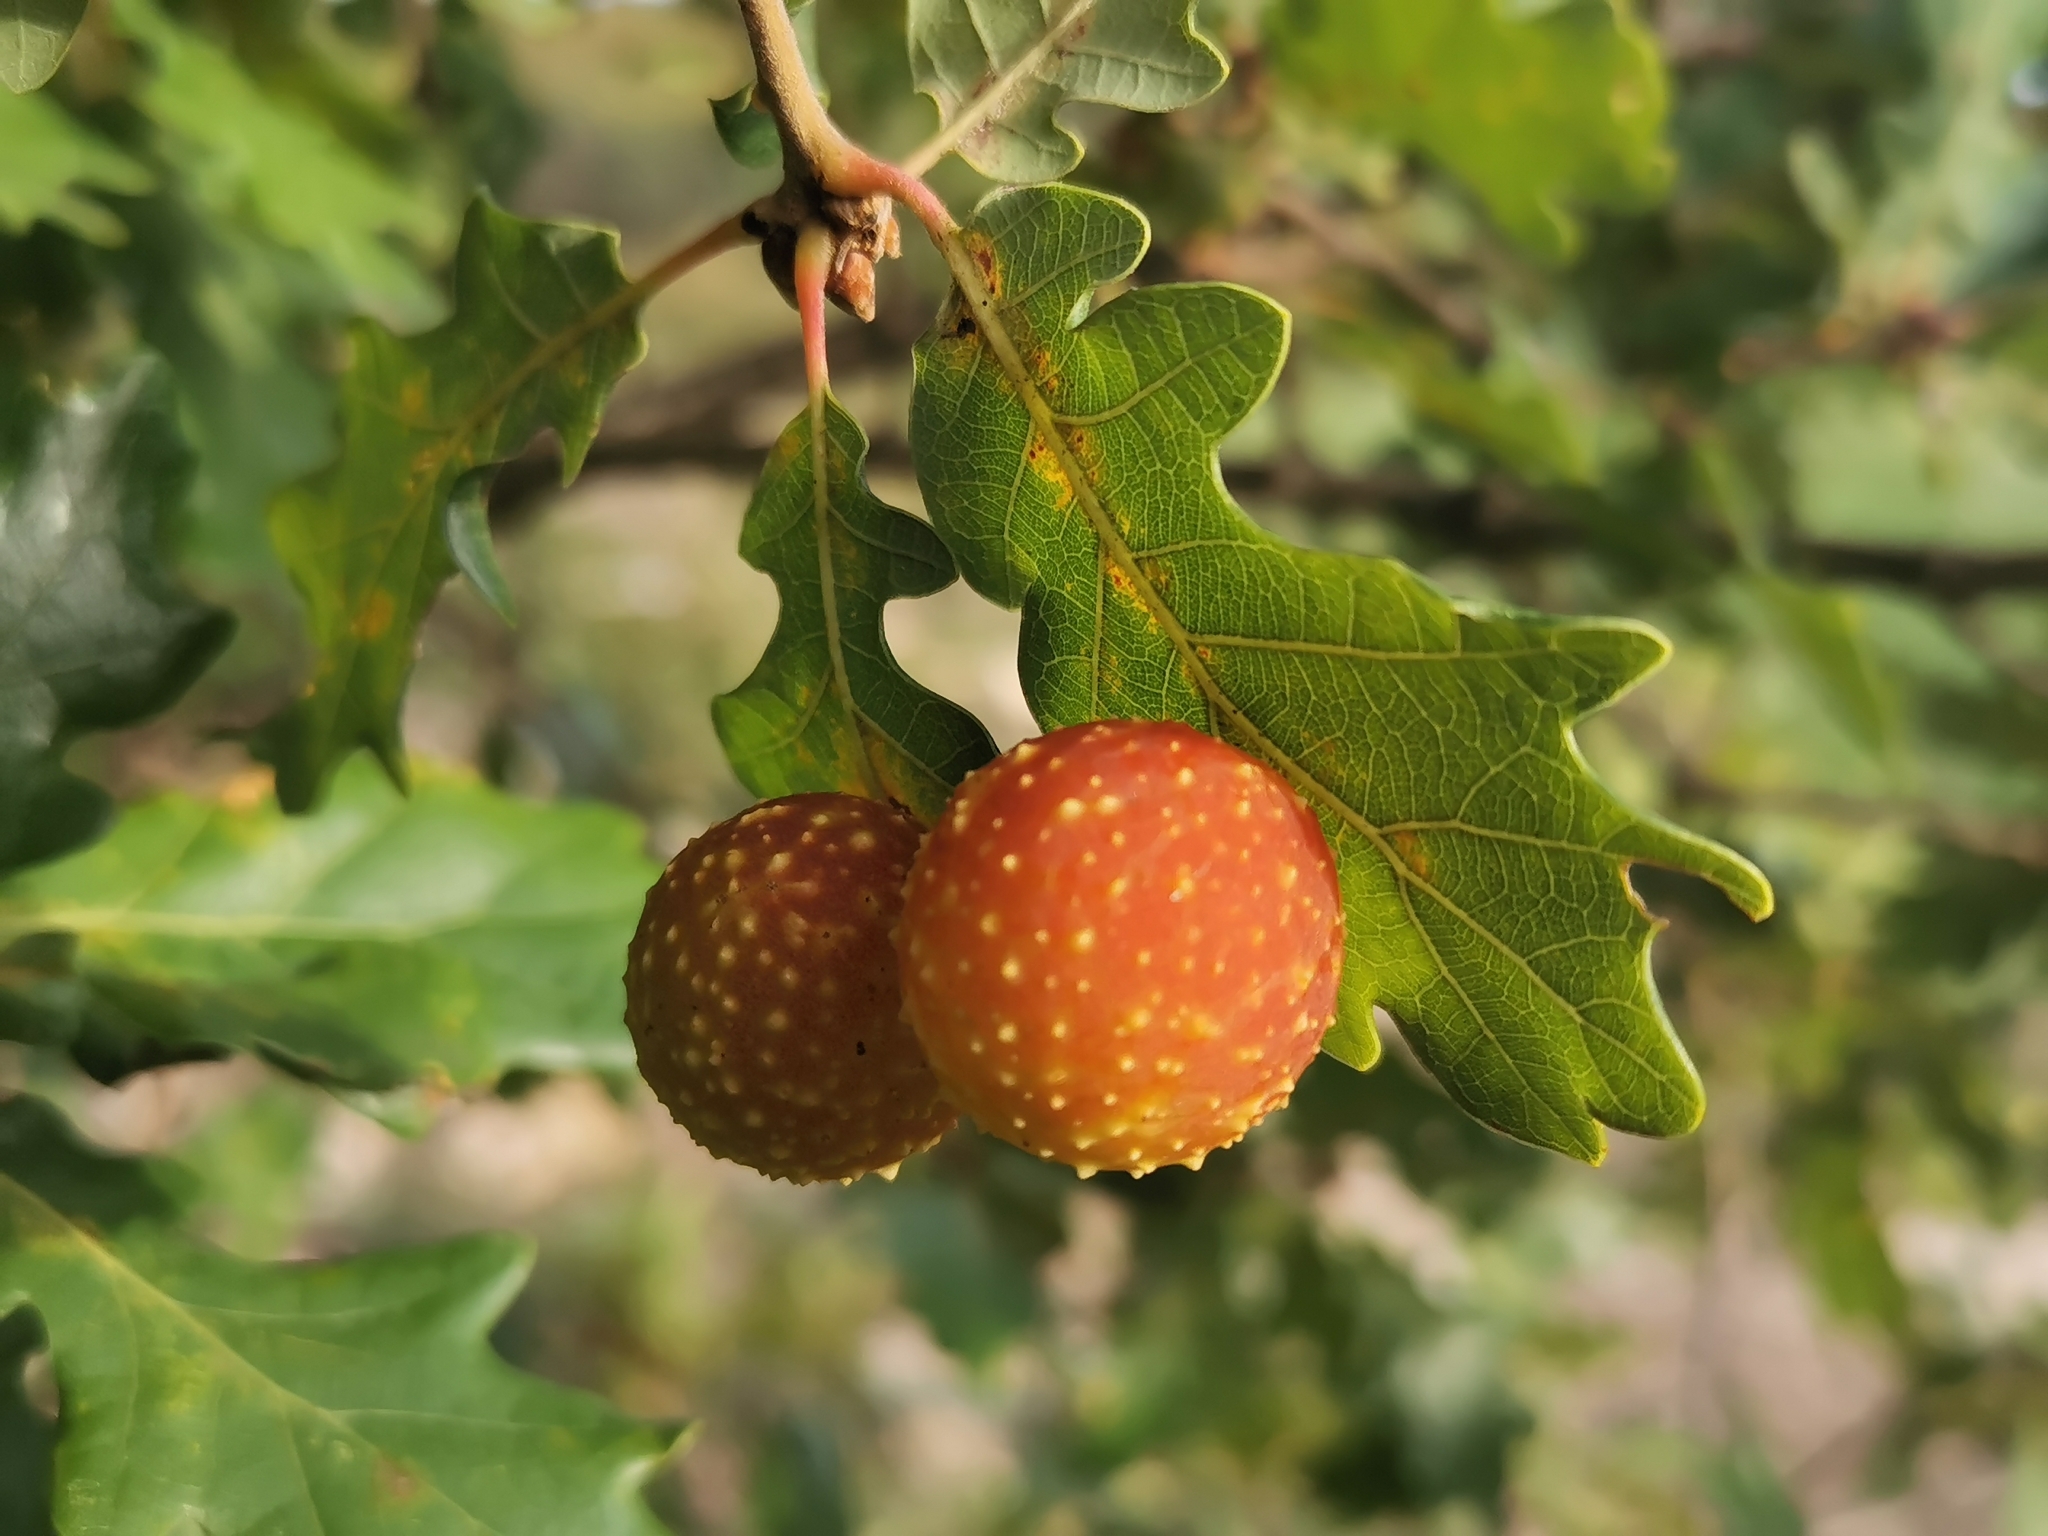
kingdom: Animalia
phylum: Arthropoda
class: Insecta
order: Hymenoptera
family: Cynipidae
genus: Cynips
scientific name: Cynips quercusfolii
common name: Cherry gall
